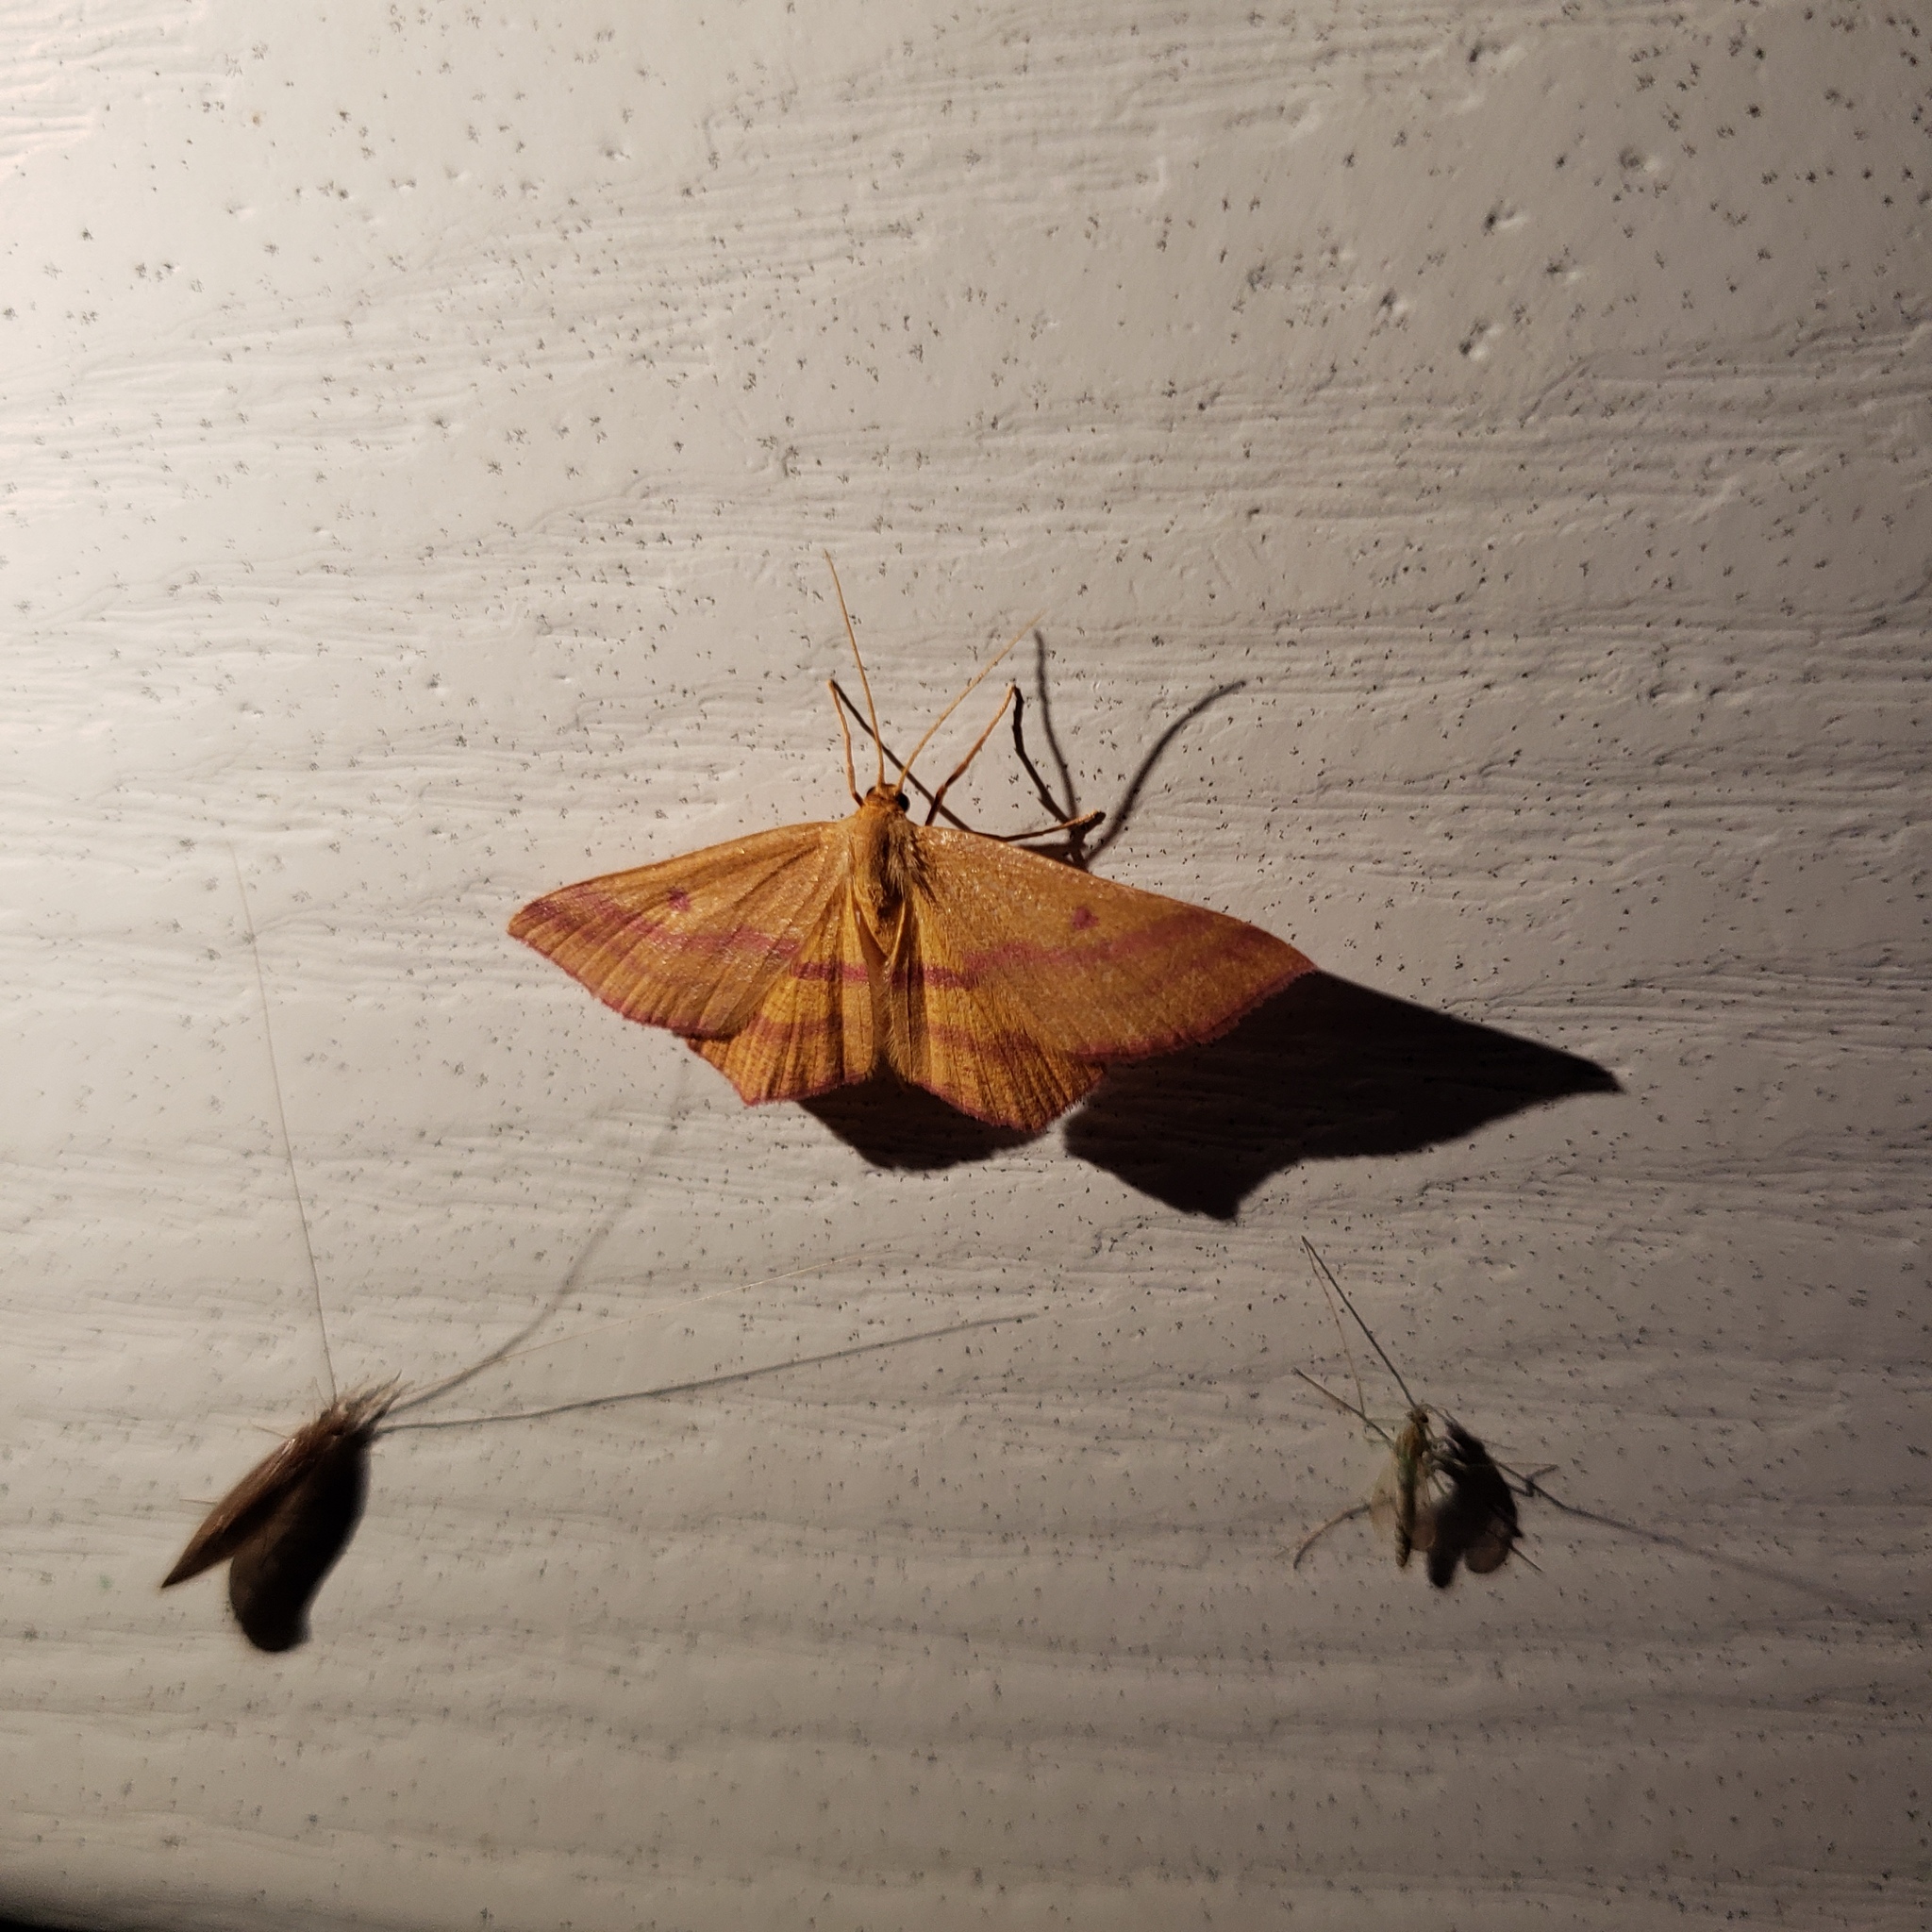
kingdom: Animalia
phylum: Arthropoda
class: Insecta
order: Lepidoptera
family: Geometridae
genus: Haematopis
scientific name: Haematopis grataria
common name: Chickweed geometer
